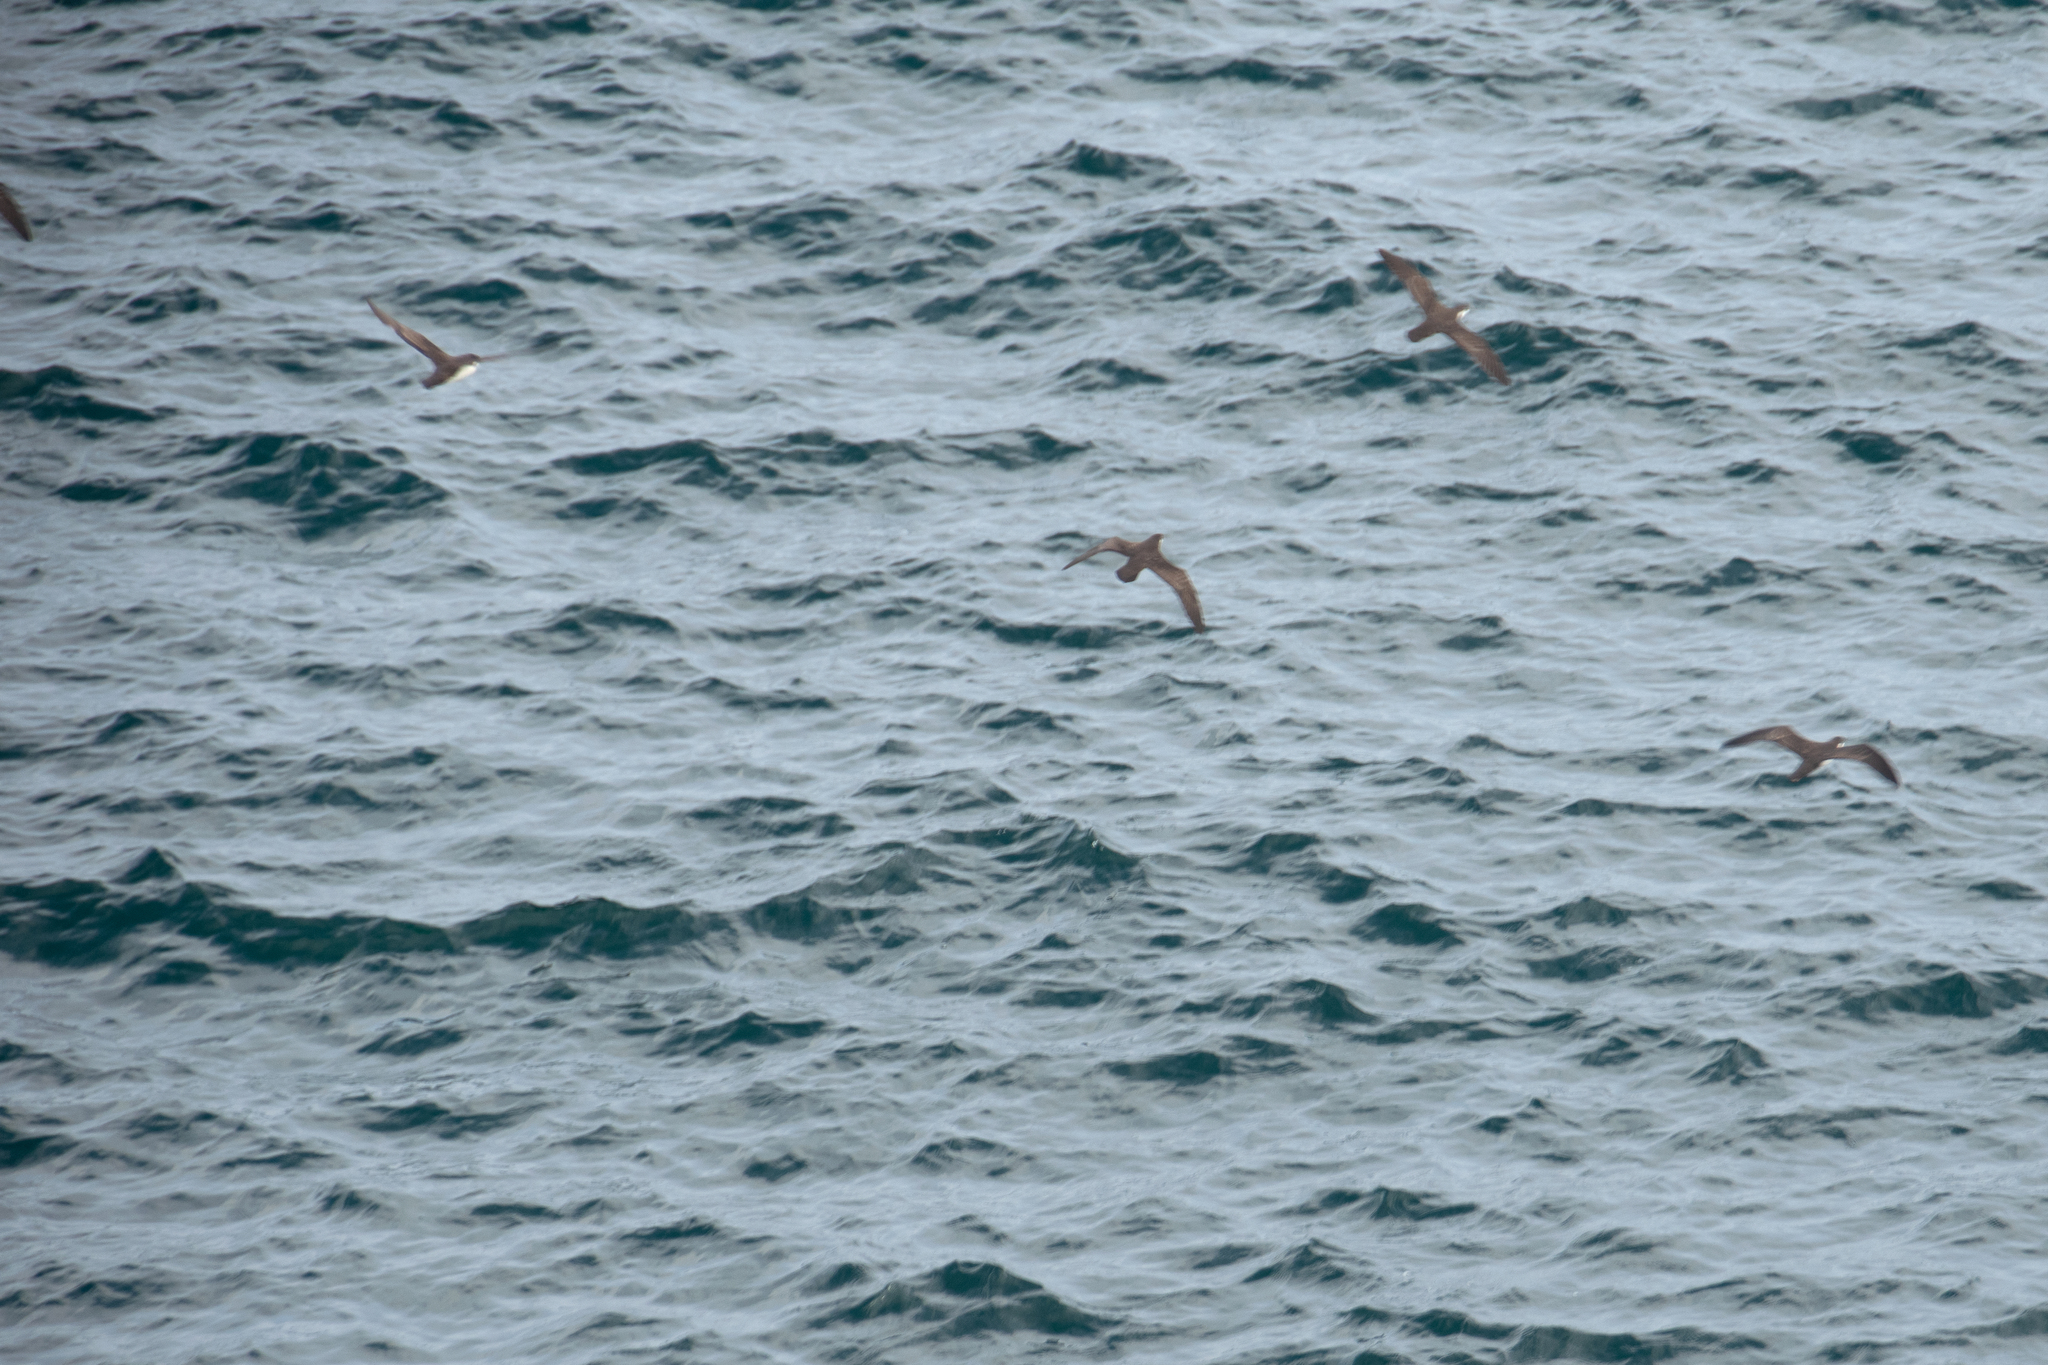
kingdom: Animalia
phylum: Chordata
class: Aves
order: Procellariiformes
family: Procellariidae
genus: Puffinus
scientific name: Puffinus subalaris
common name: Galapagos shearwater
